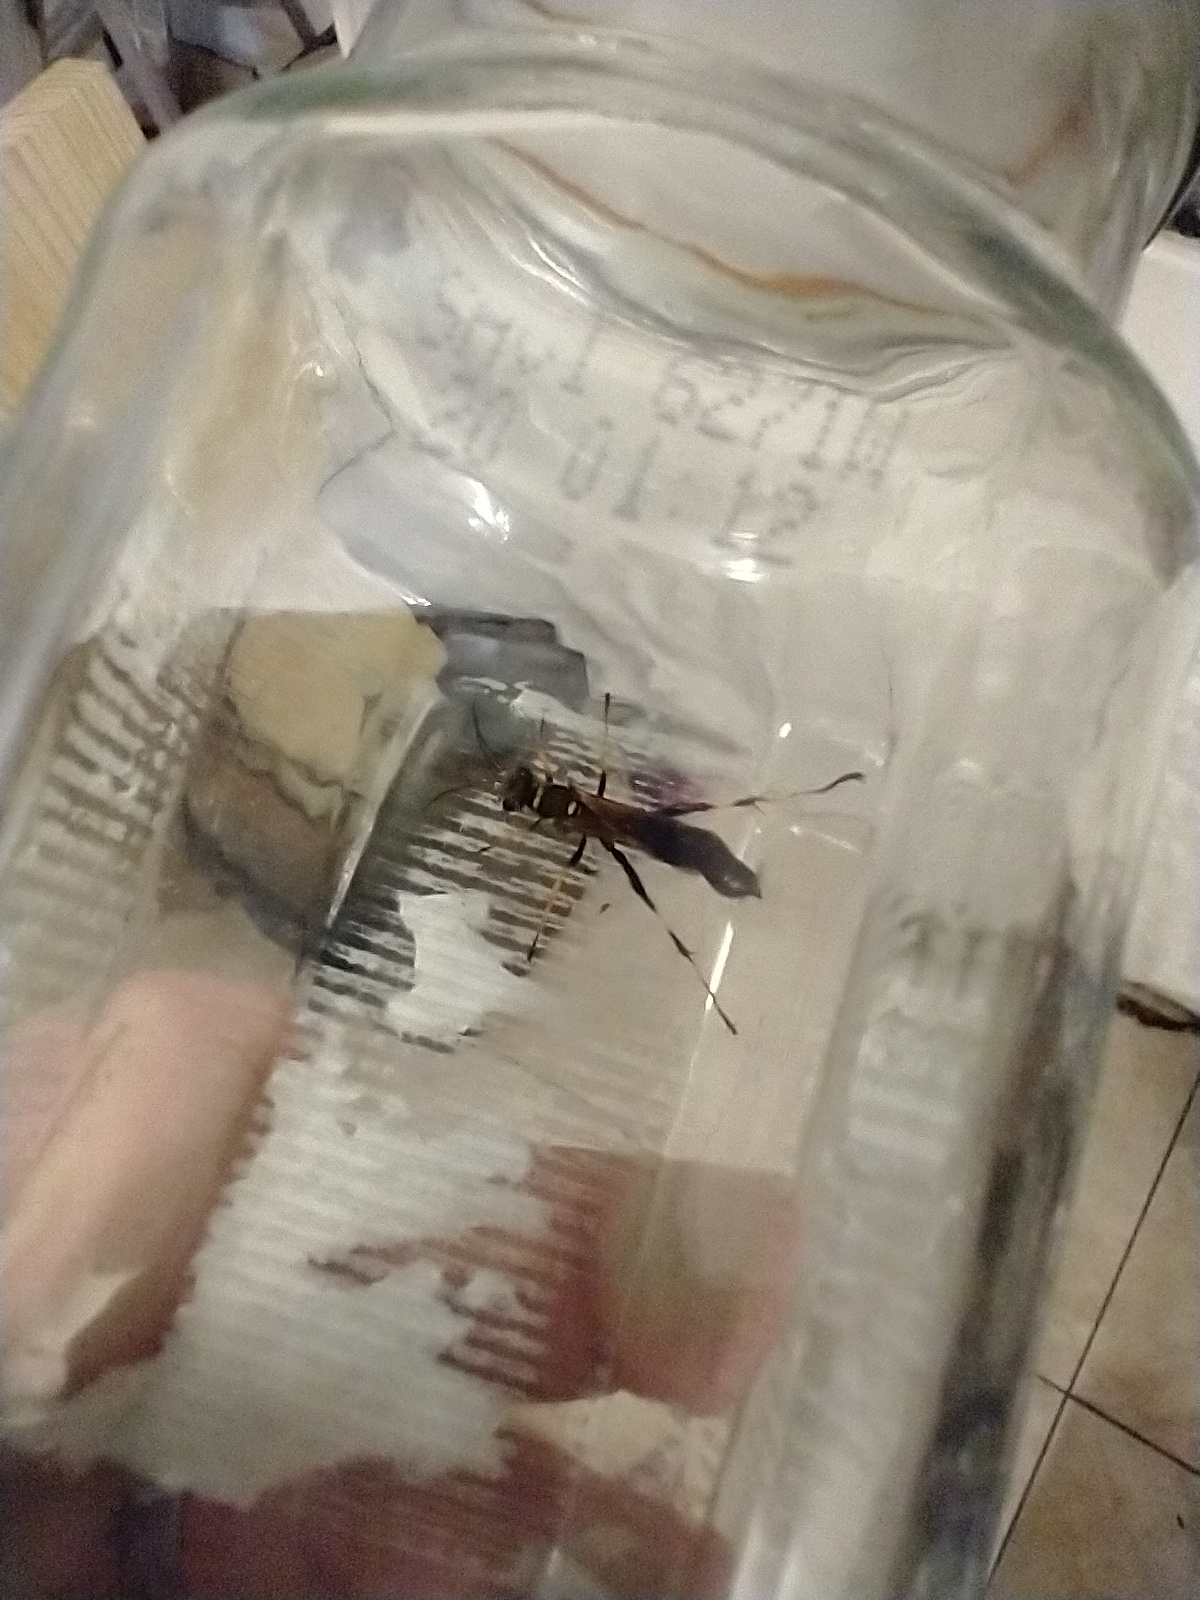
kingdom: Animalia
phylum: Arthropoda
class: Insecta
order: Hymenoptera
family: Sphecidae
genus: Sceliphron
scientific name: Sceliphron caementarium
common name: Mud dauber
